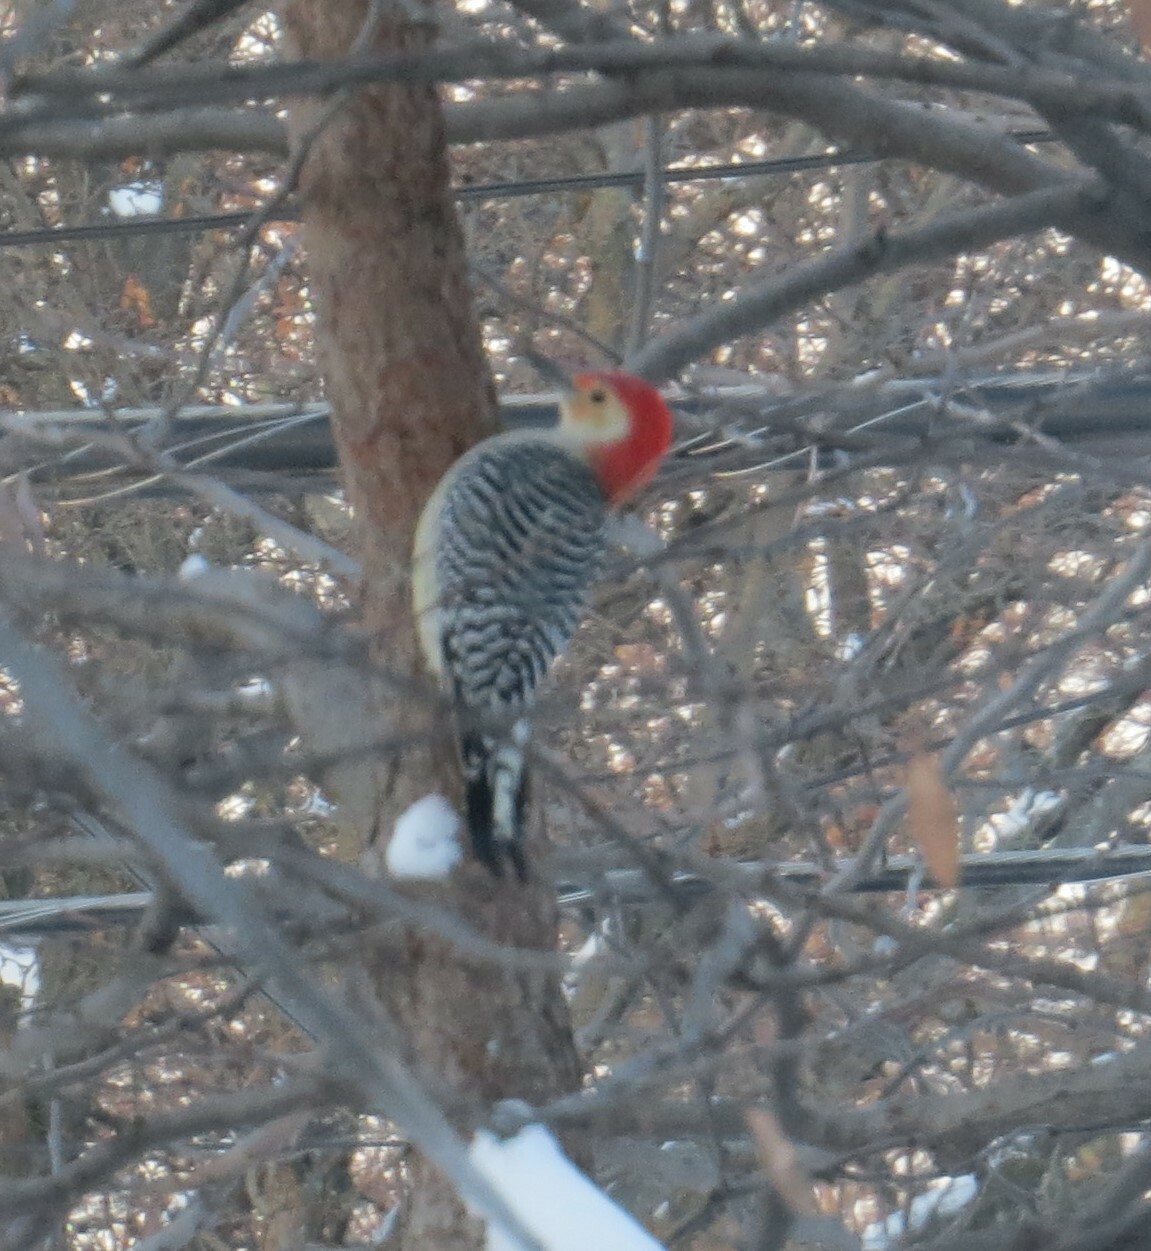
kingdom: Animalia
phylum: Chordata
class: Aves
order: Piciformes
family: Picidae
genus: Melanerpes
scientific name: Melanerpes carolinus
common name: Red-bellied woodpecker
